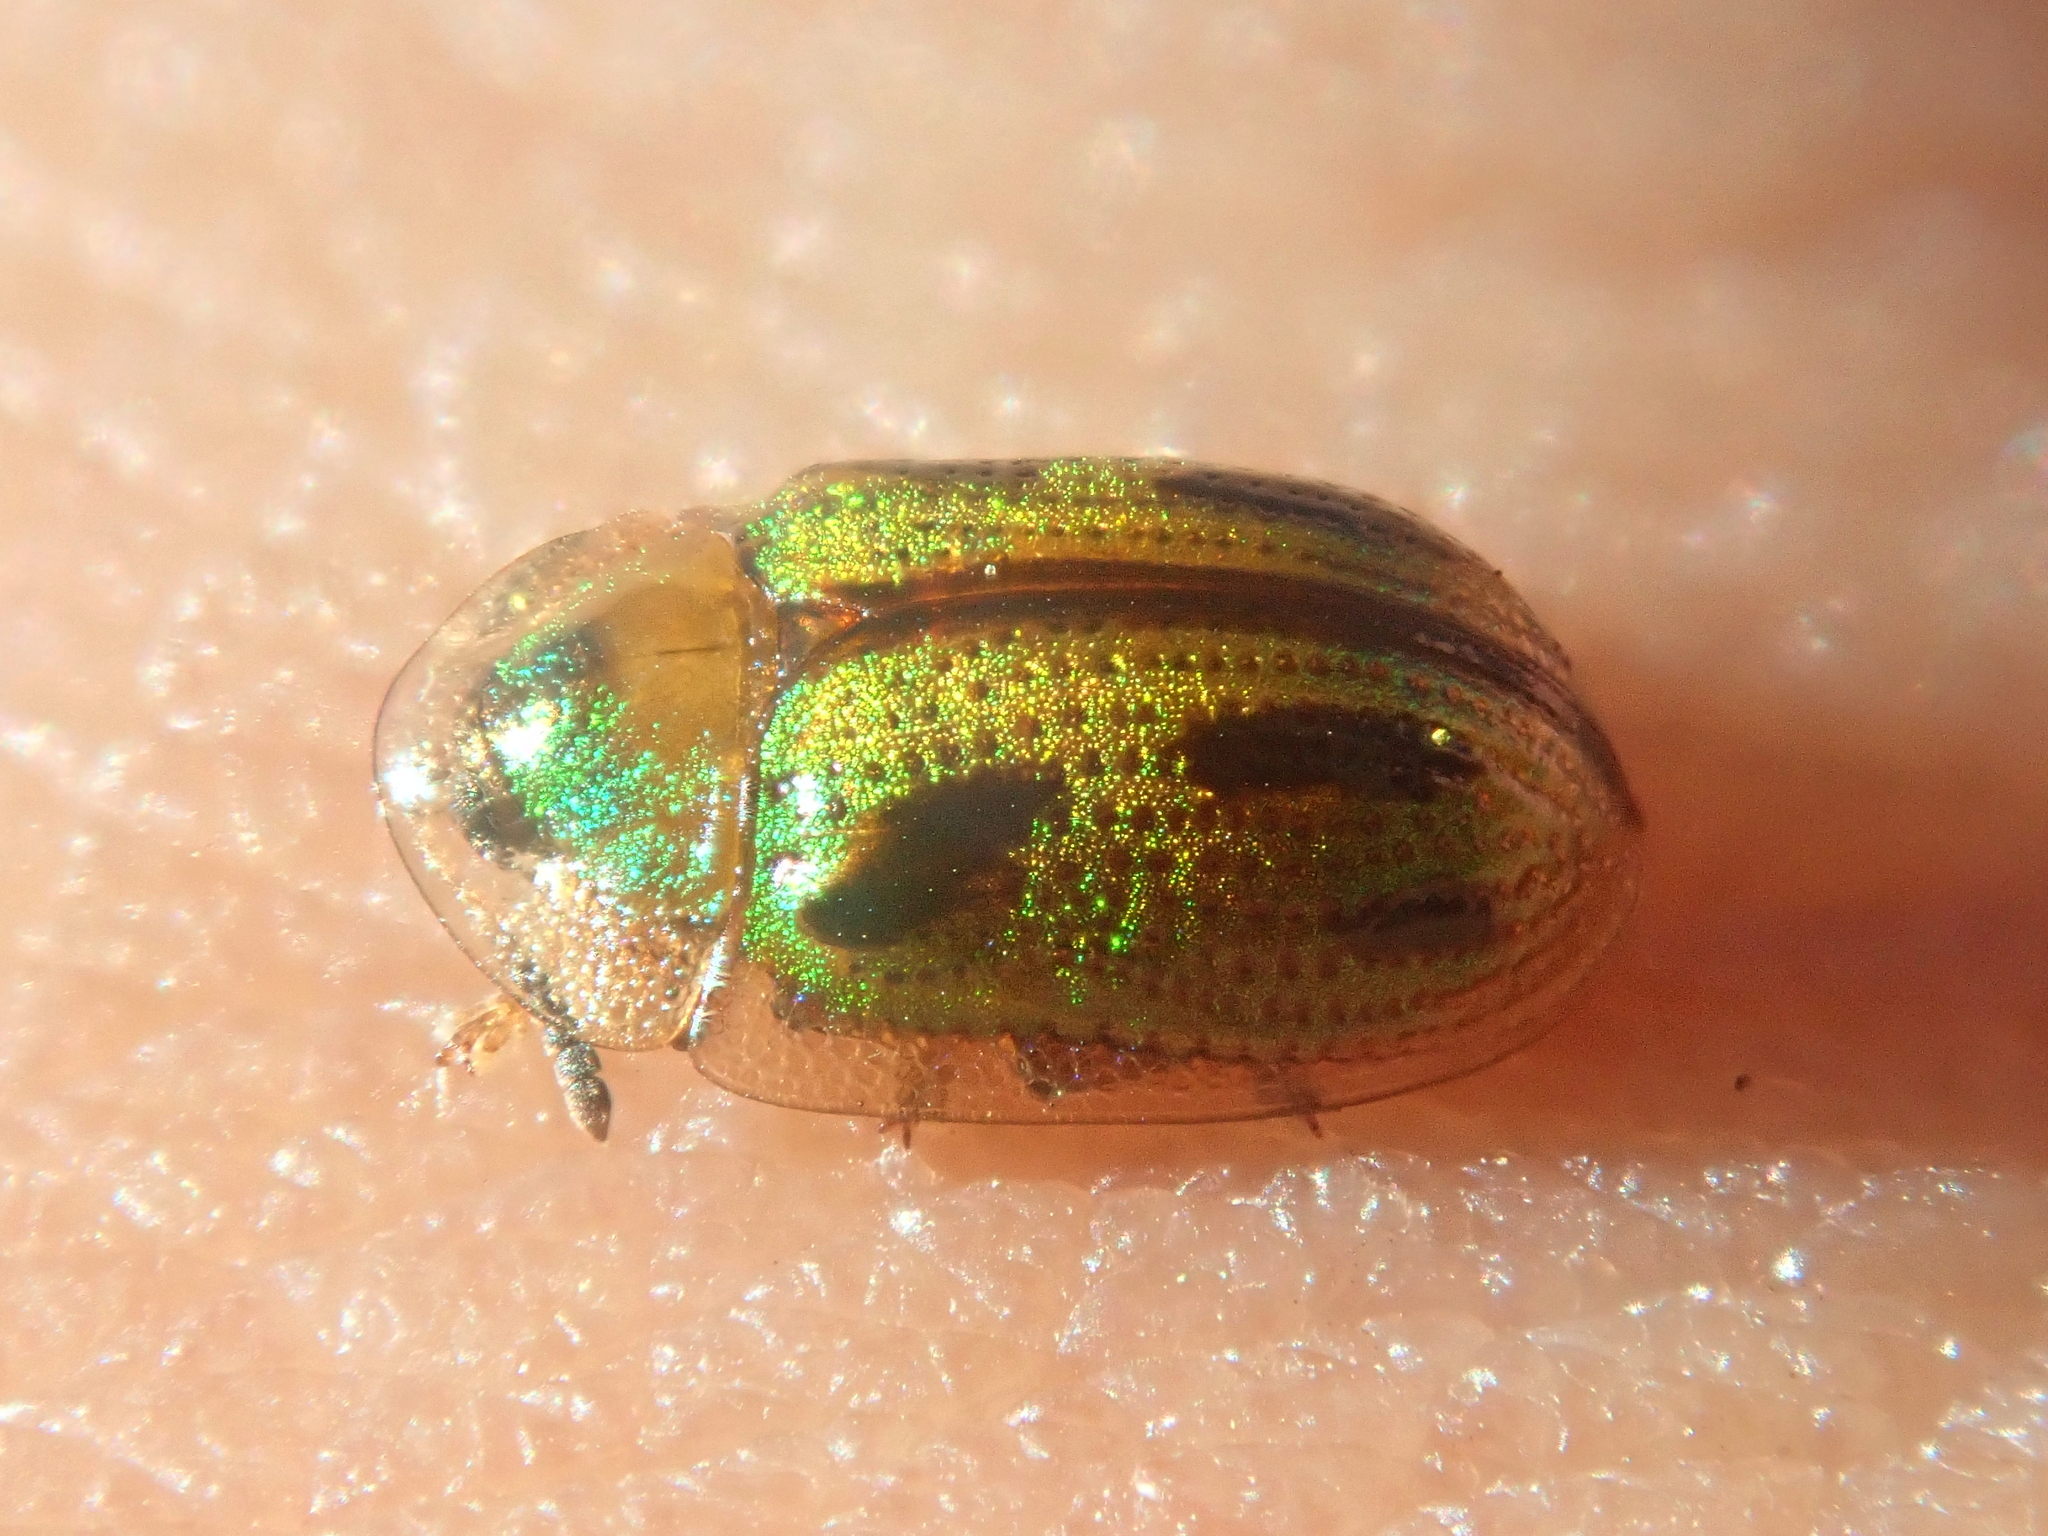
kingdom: Animalia
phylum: Arthropoda
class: Insecta
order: Coleoptera
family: Chrysomelidae
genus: Bradycassis
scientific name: Bradycassis romani
